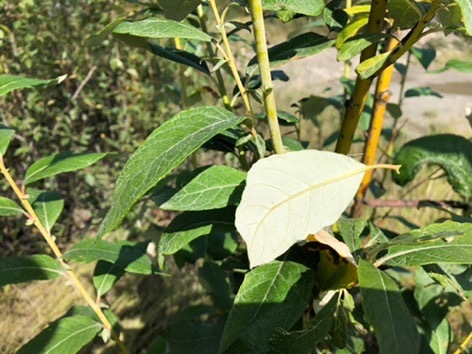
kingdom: Plantae
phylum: Tracheophyta
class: Magnoliopsida
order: Malpighiales
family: Salicaceae
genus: Salix
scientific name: Salix alaxensis
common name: Feltleaf willow
